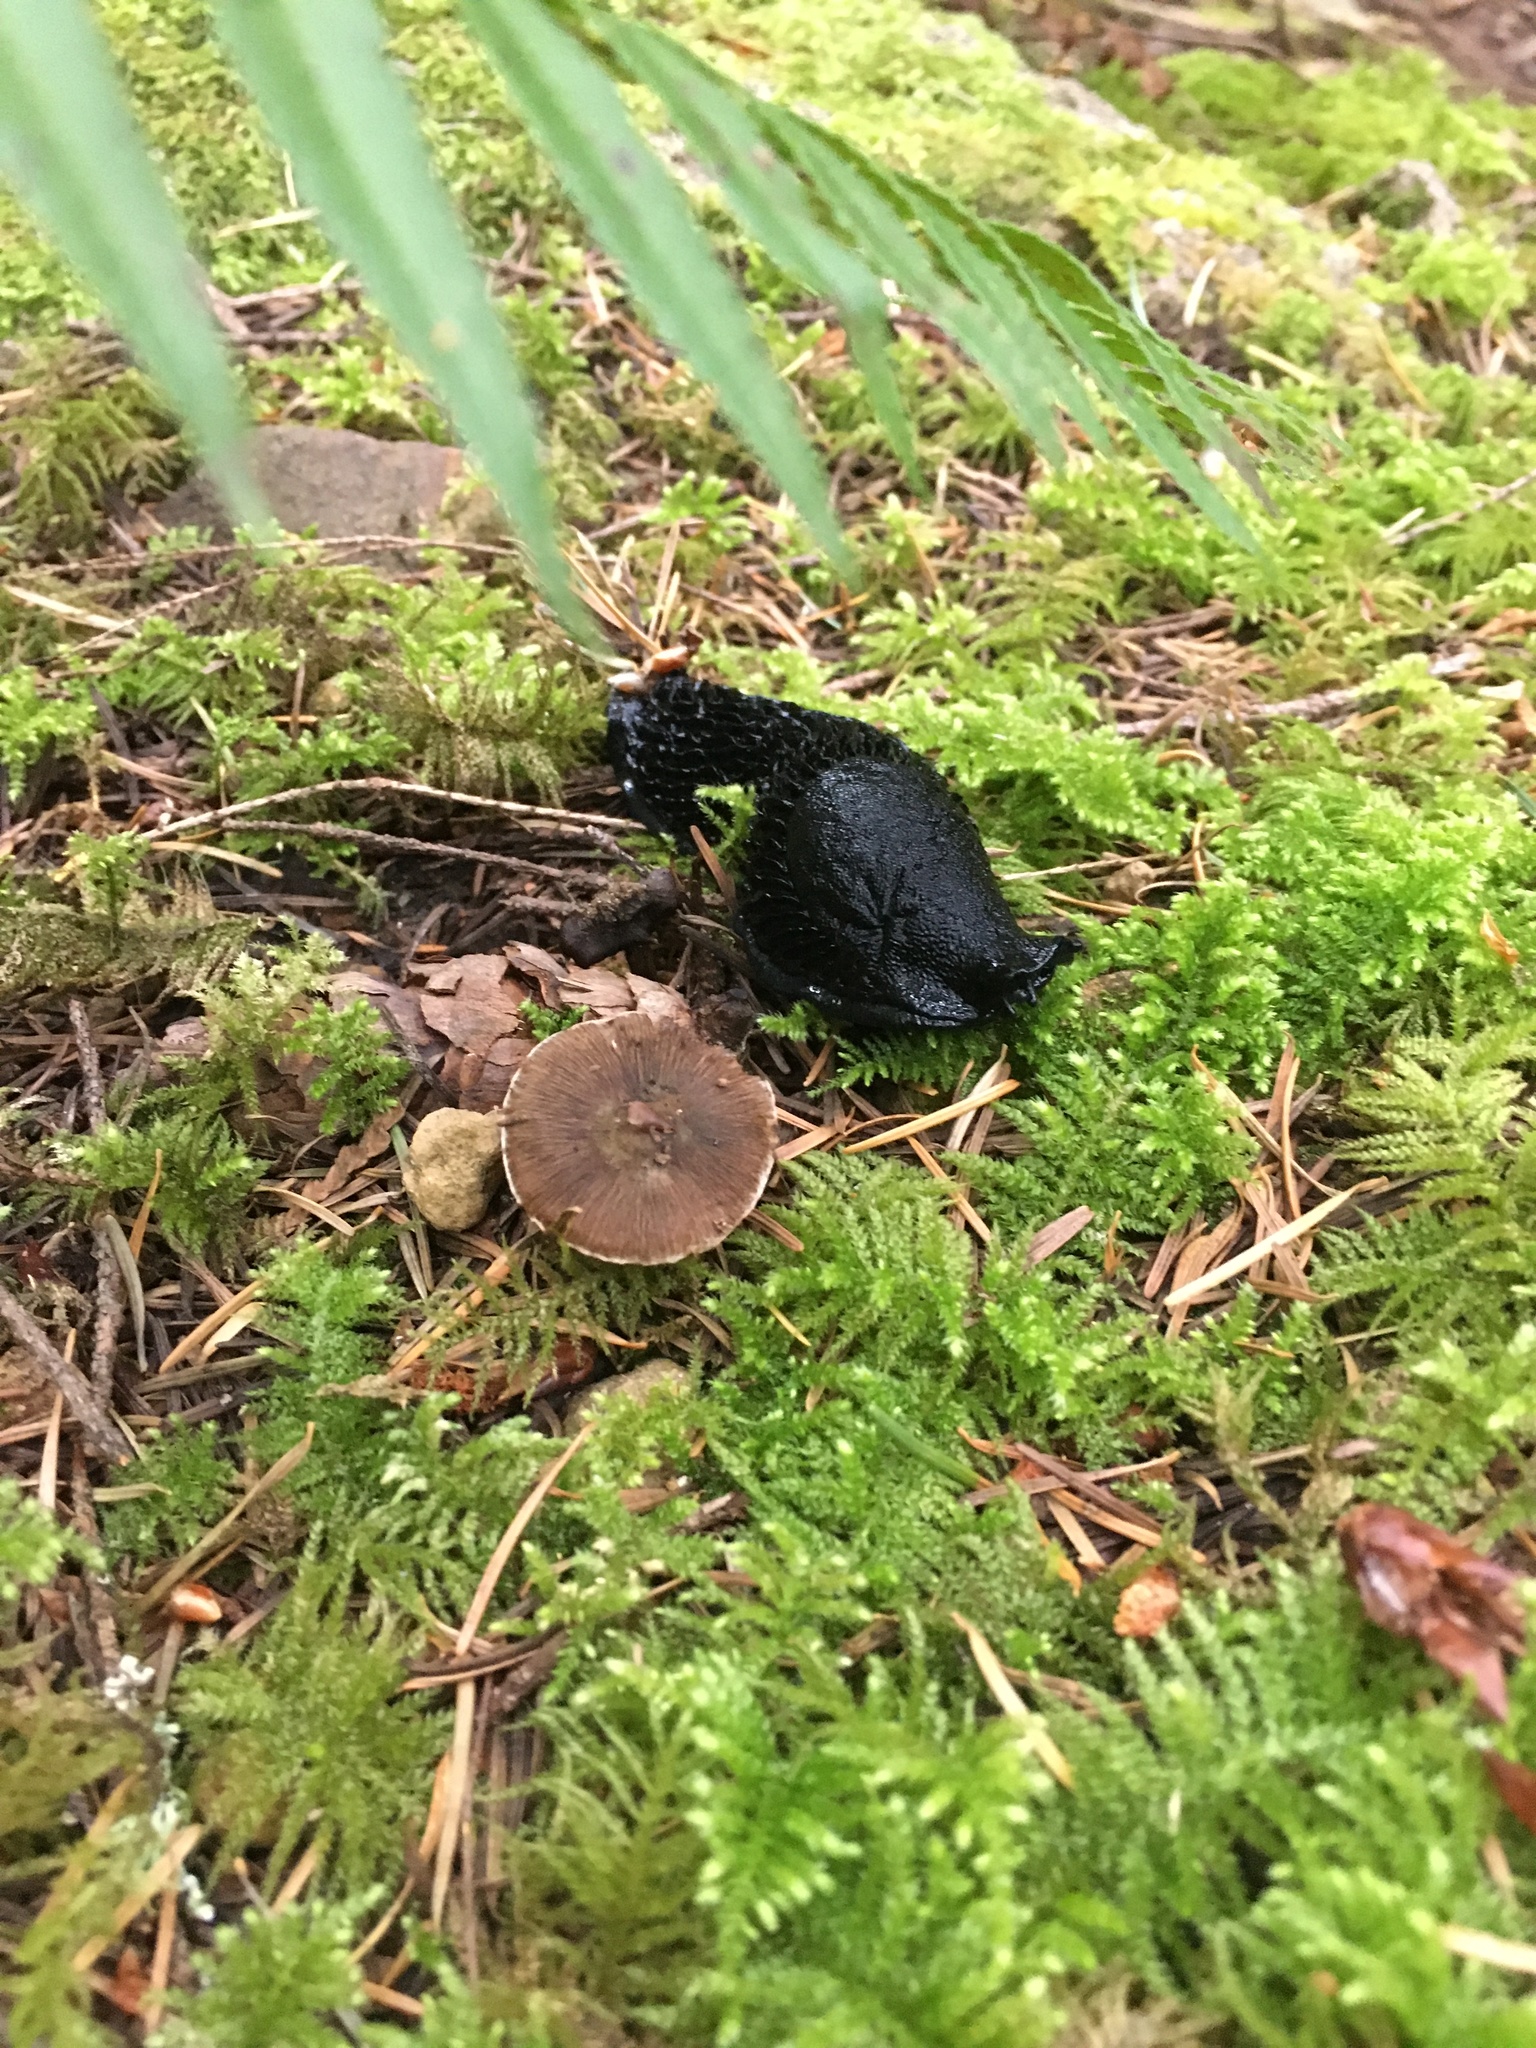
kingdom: Animalia
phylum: Mollusca
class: Gastropoda
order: Stylommatophora
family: Arionidae
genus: Arion
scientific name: Arion
